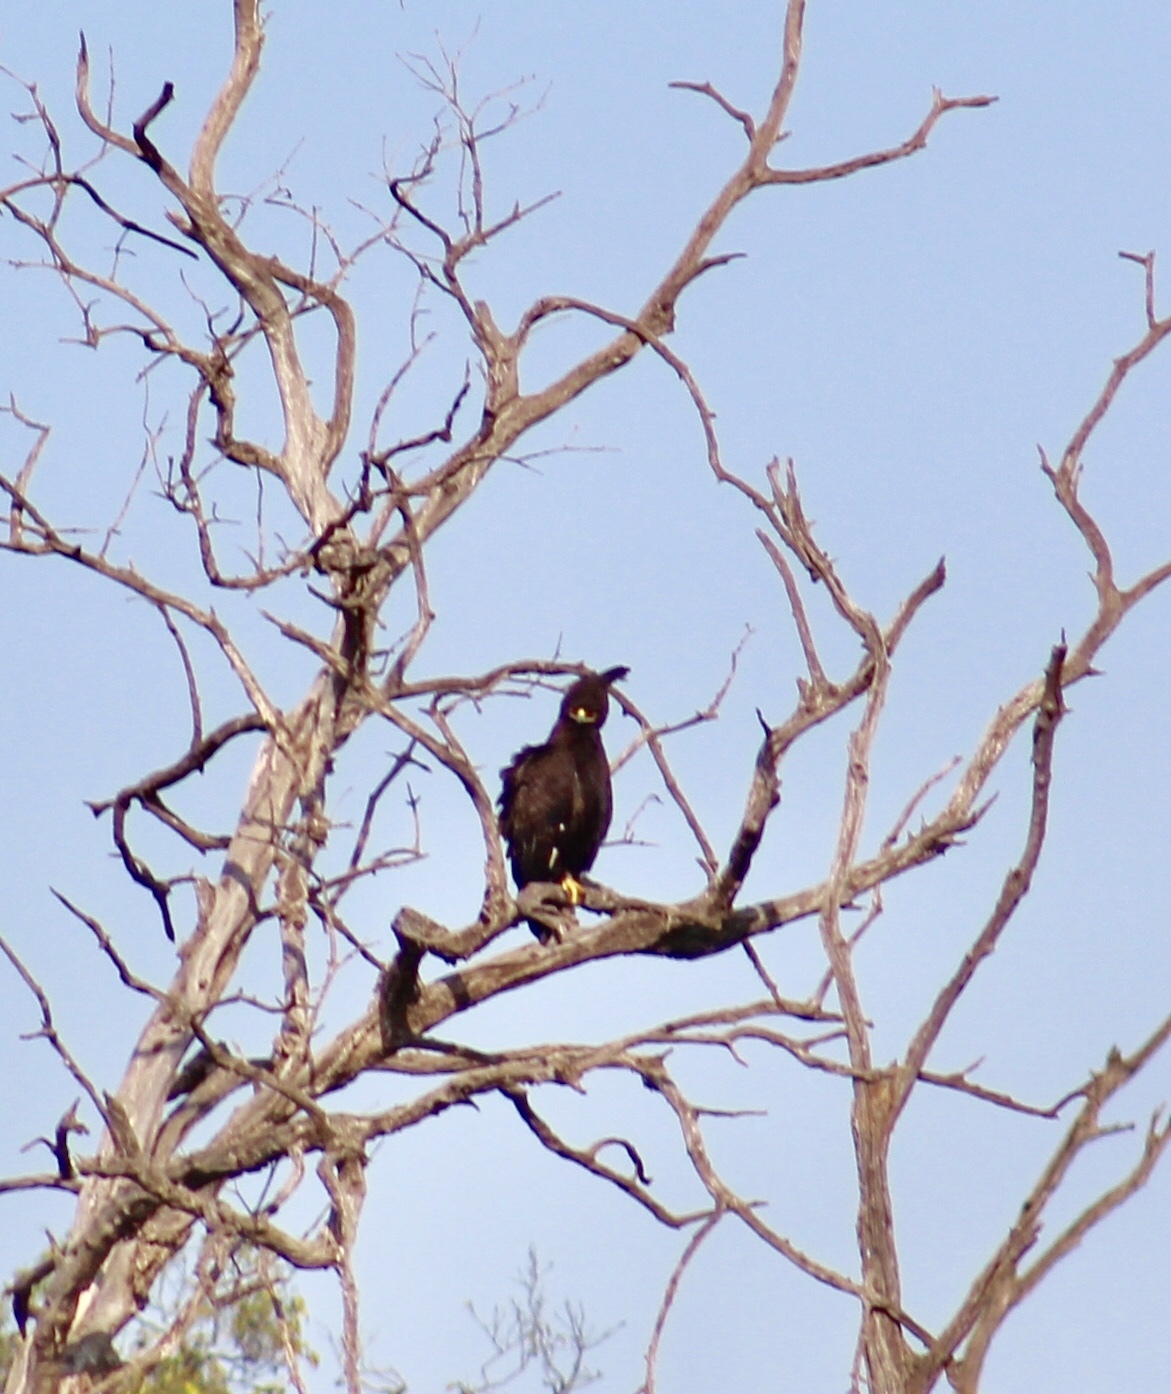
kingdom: Animalia
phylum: Chordata
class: Aves
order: Accipitriformes
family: Accipitridae
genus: Lophaetus
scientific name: Lophaetus occipitalis
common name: Long-crested eagle
